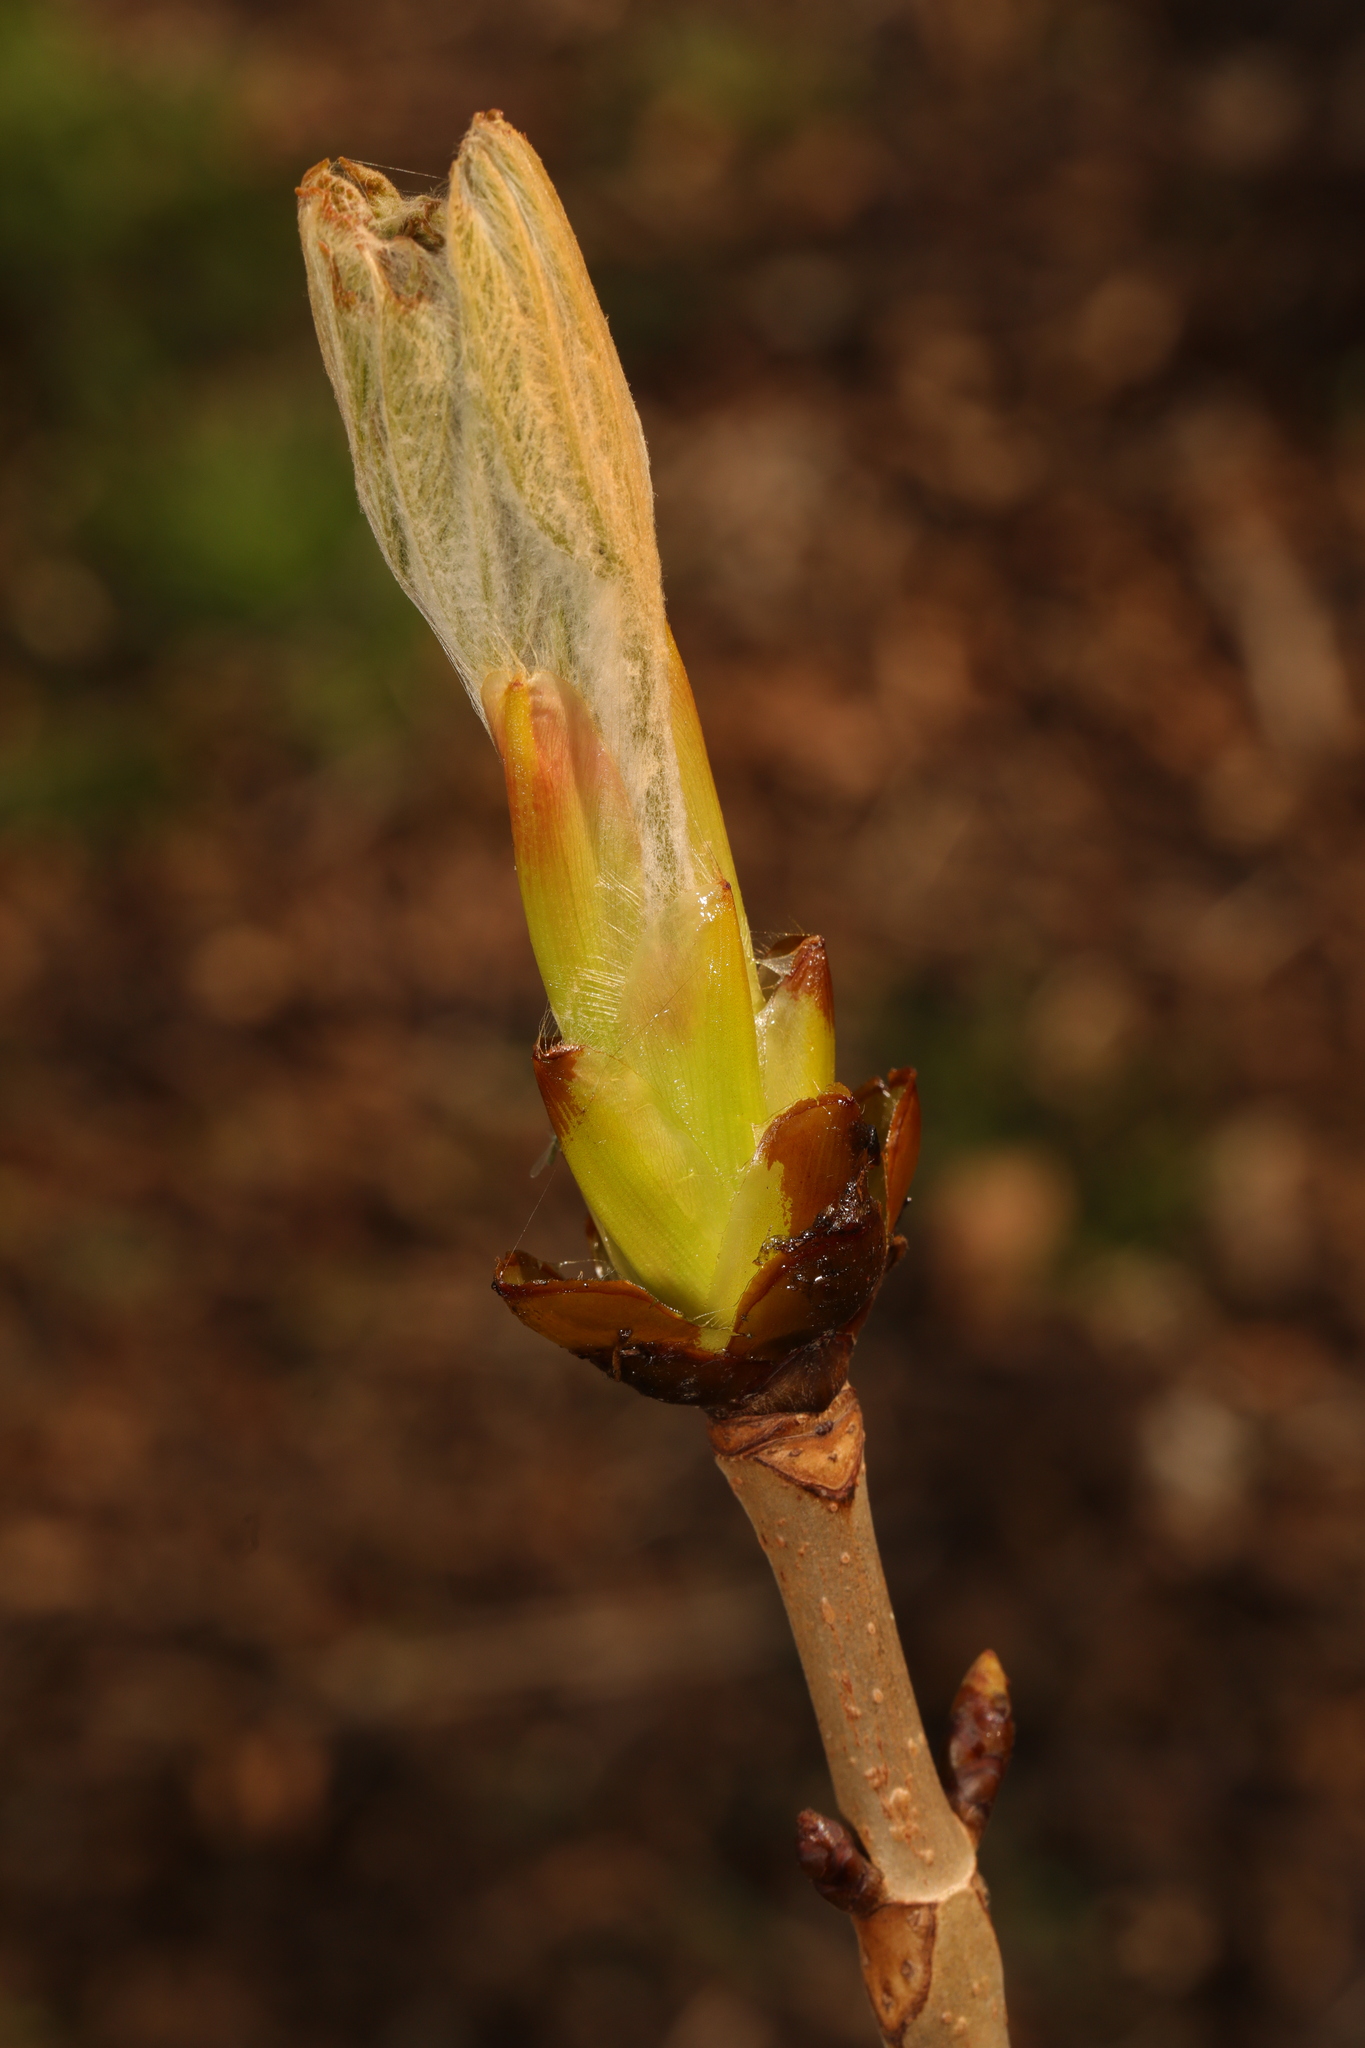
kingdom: Plantae
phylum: Tracheophyta
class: Magnoliopsida
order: Sapindales
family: Sapindaceae
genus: Aesculus
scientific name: Aesculus hippocastanum
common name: Horse-chestnut
